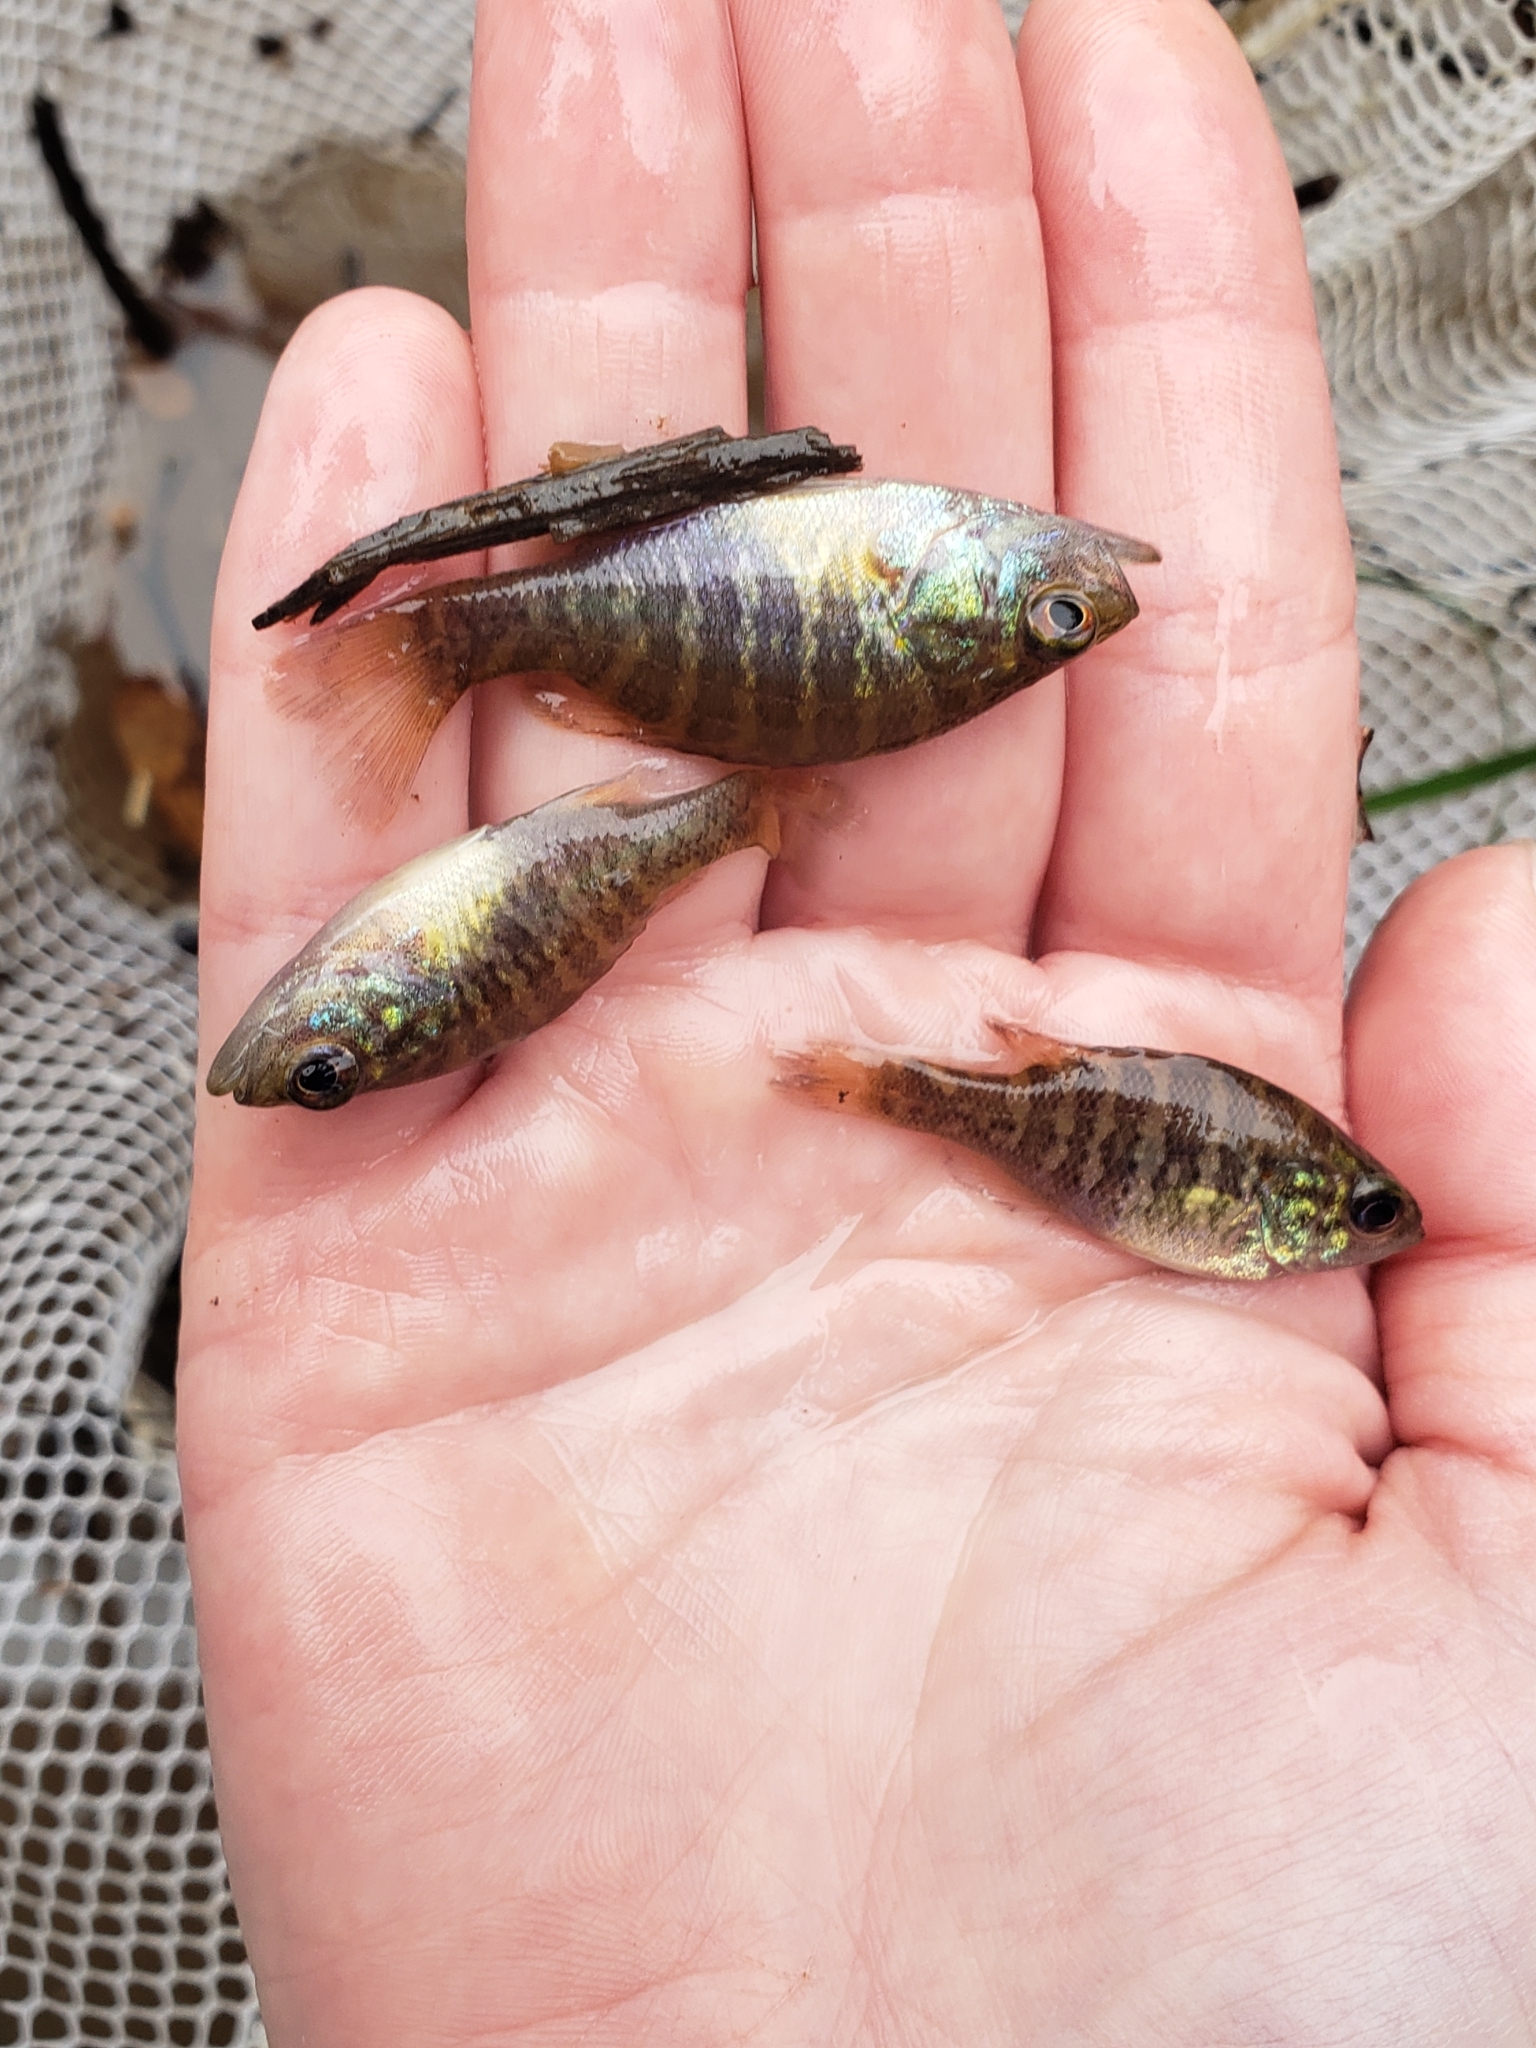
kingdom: Animalia
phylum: Chordata
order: Perciformes
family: Centrarchidae
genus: Lepomis
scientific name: Lepomis gulosus
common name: Warmouth
